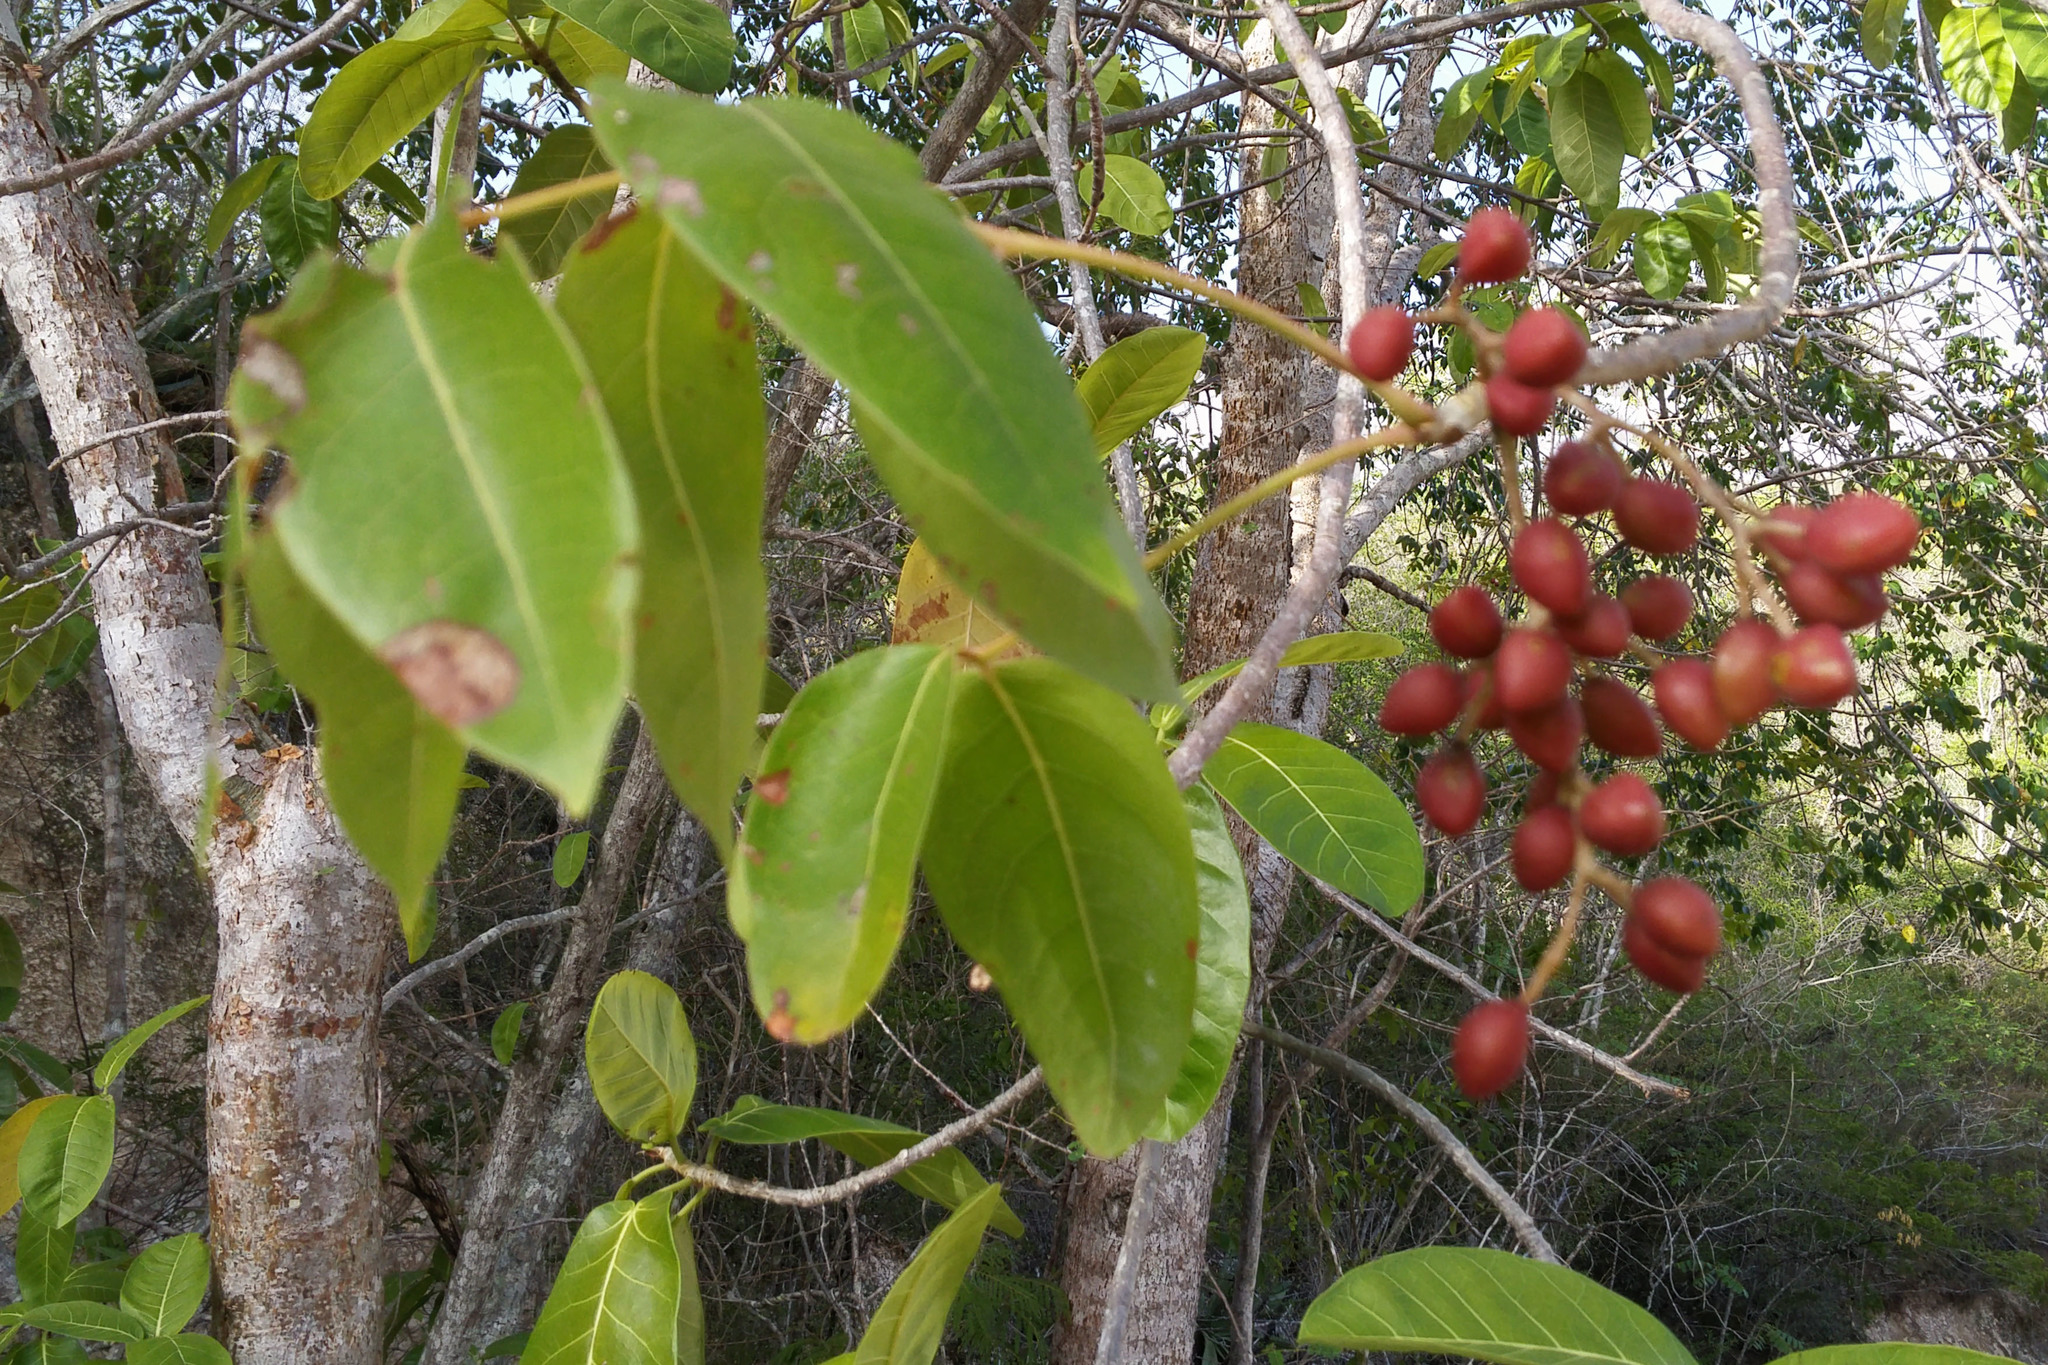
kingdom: Plantae
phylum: Tracheophyta
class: Magnoliopsida
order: Sapindales
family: Burseraceae
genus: Bursera
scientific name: Bursera simaruba
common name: Turpentine tree
